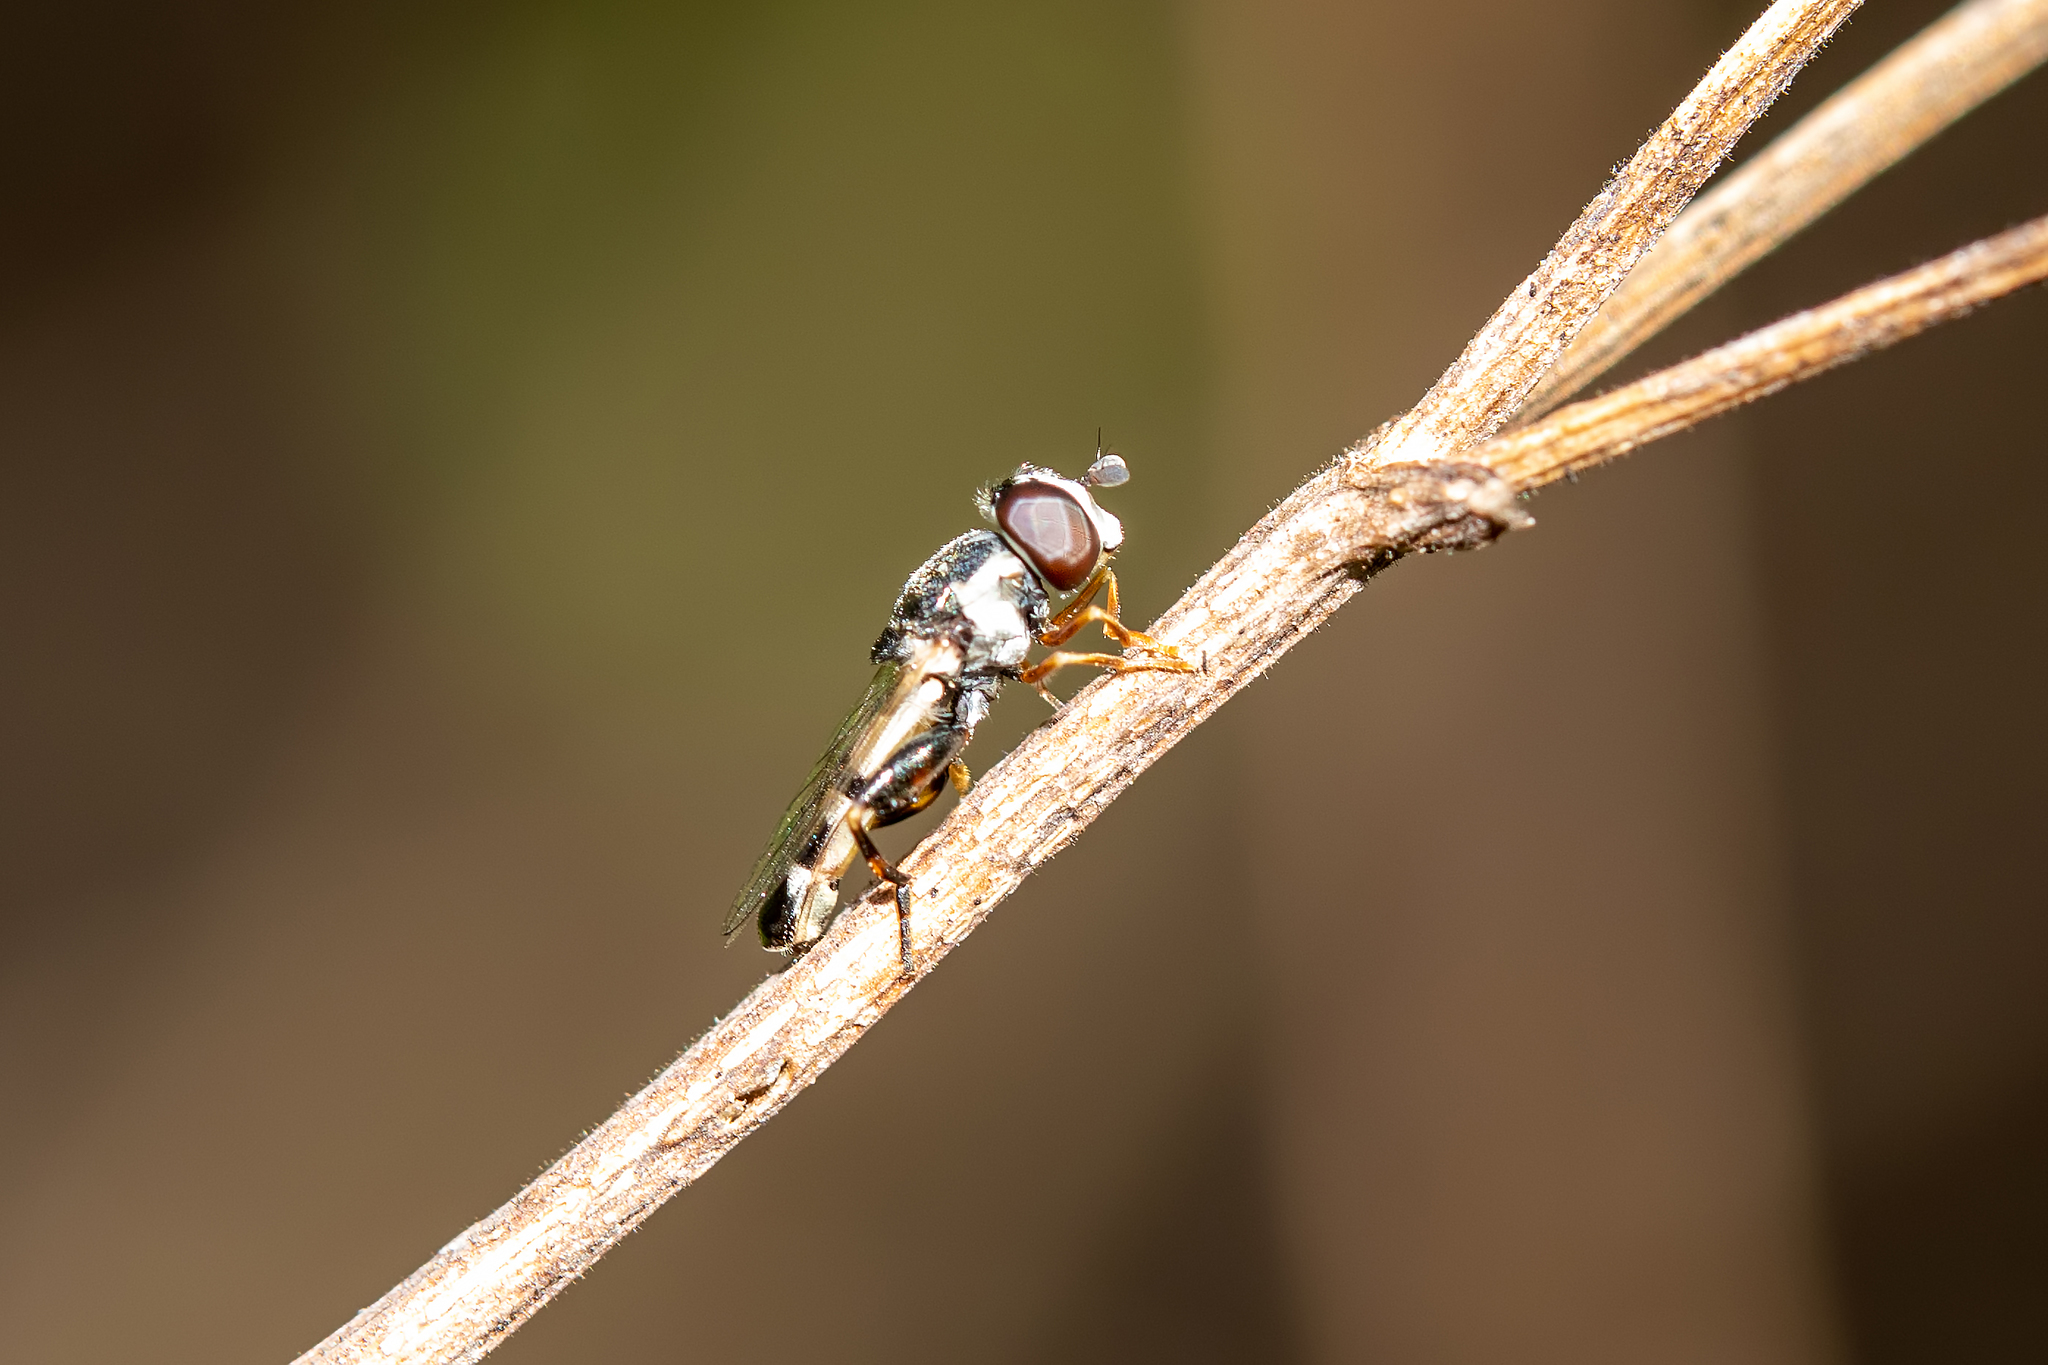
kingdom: Animalia
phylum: Arthropoda
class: Insecta
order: Diptera
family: Syrphidae
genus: Syritta
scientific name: Syritta flaviventris
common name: Syrphid fly
